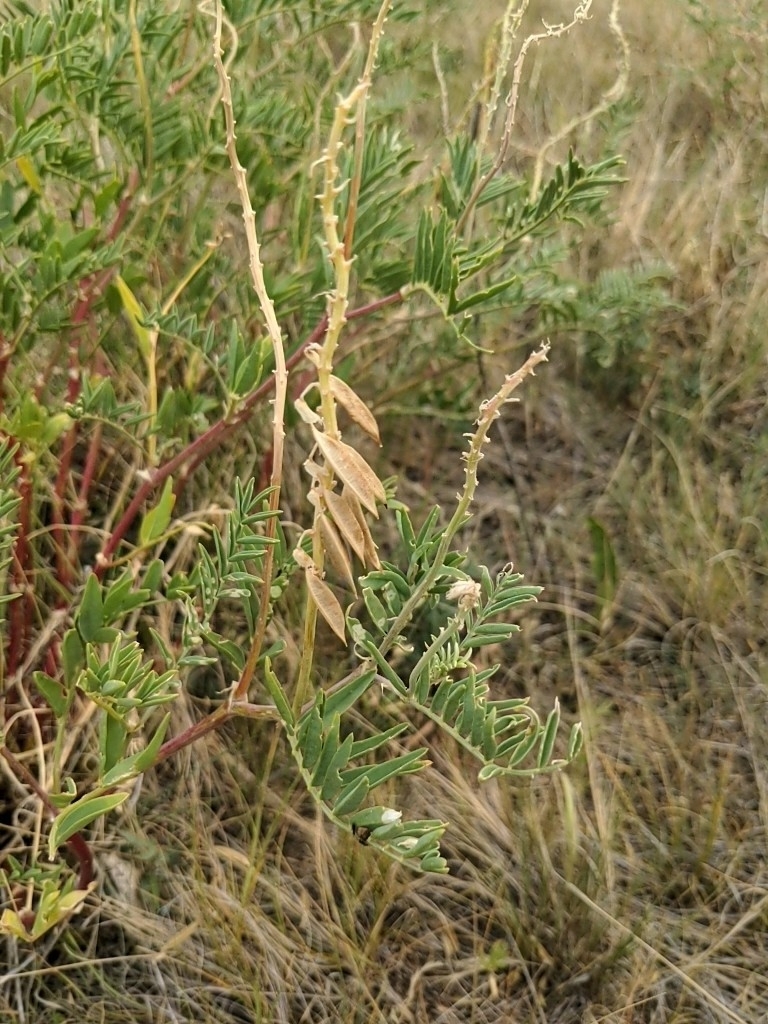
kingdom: Plantae
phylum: Tracheophyta
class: Magnoliopsida
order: Fabales
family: Fabaceae
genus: Astragalus
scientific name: Astragalus racemosus
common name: Alkali milk-vetch
